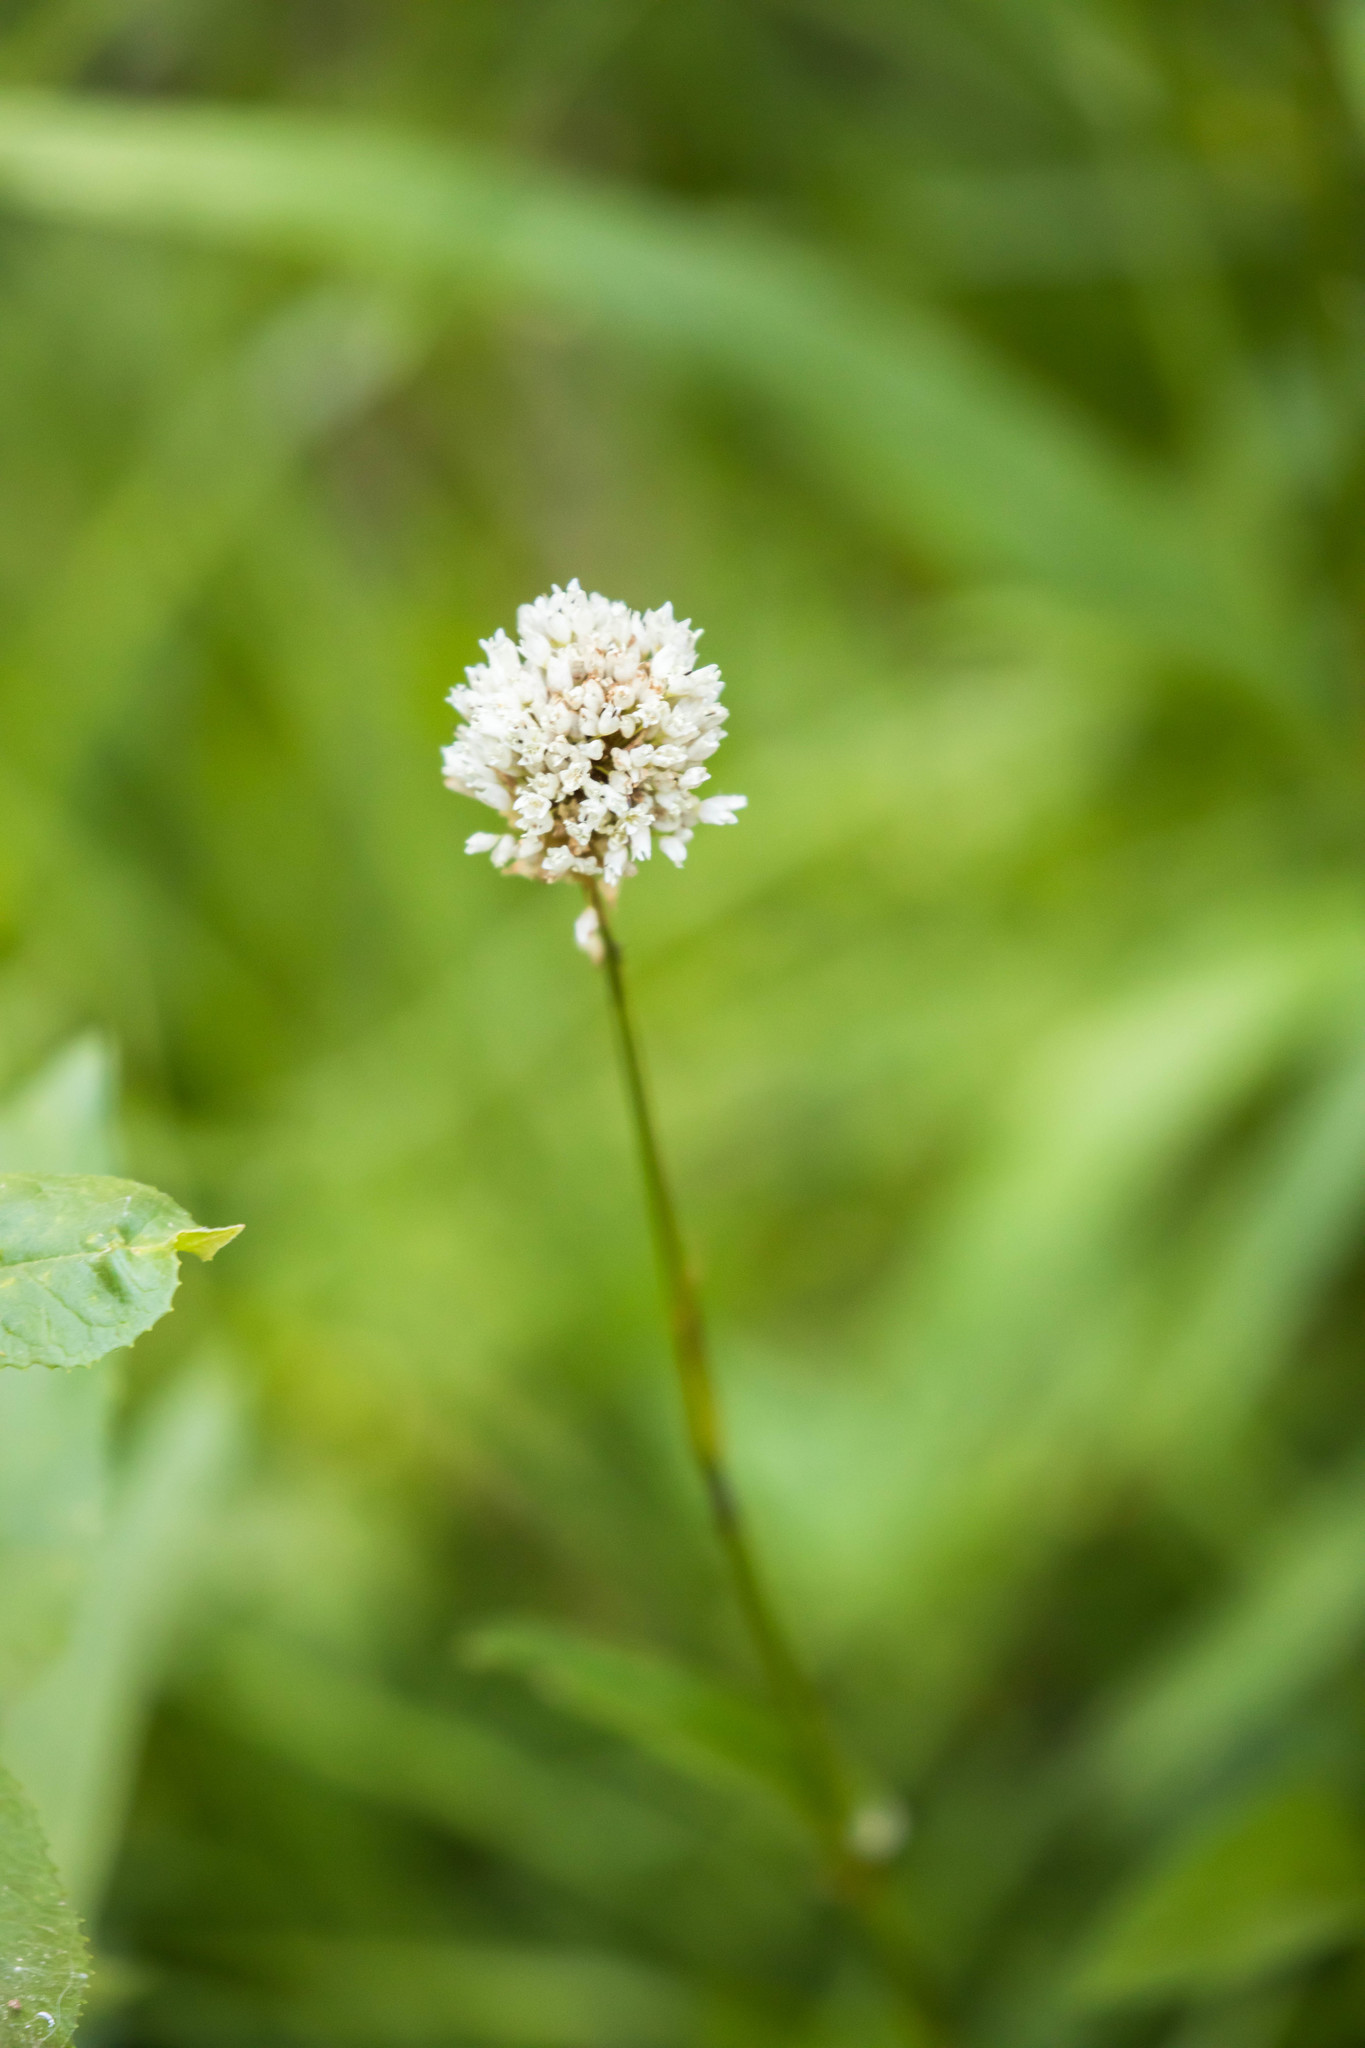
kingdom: Plantae
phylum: Tracheophyta
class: Magnoliopsida
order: Caryophyllales
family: Polygonaceae
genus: Bistorta
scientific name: Bistorta bistortoides
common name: American bistort
